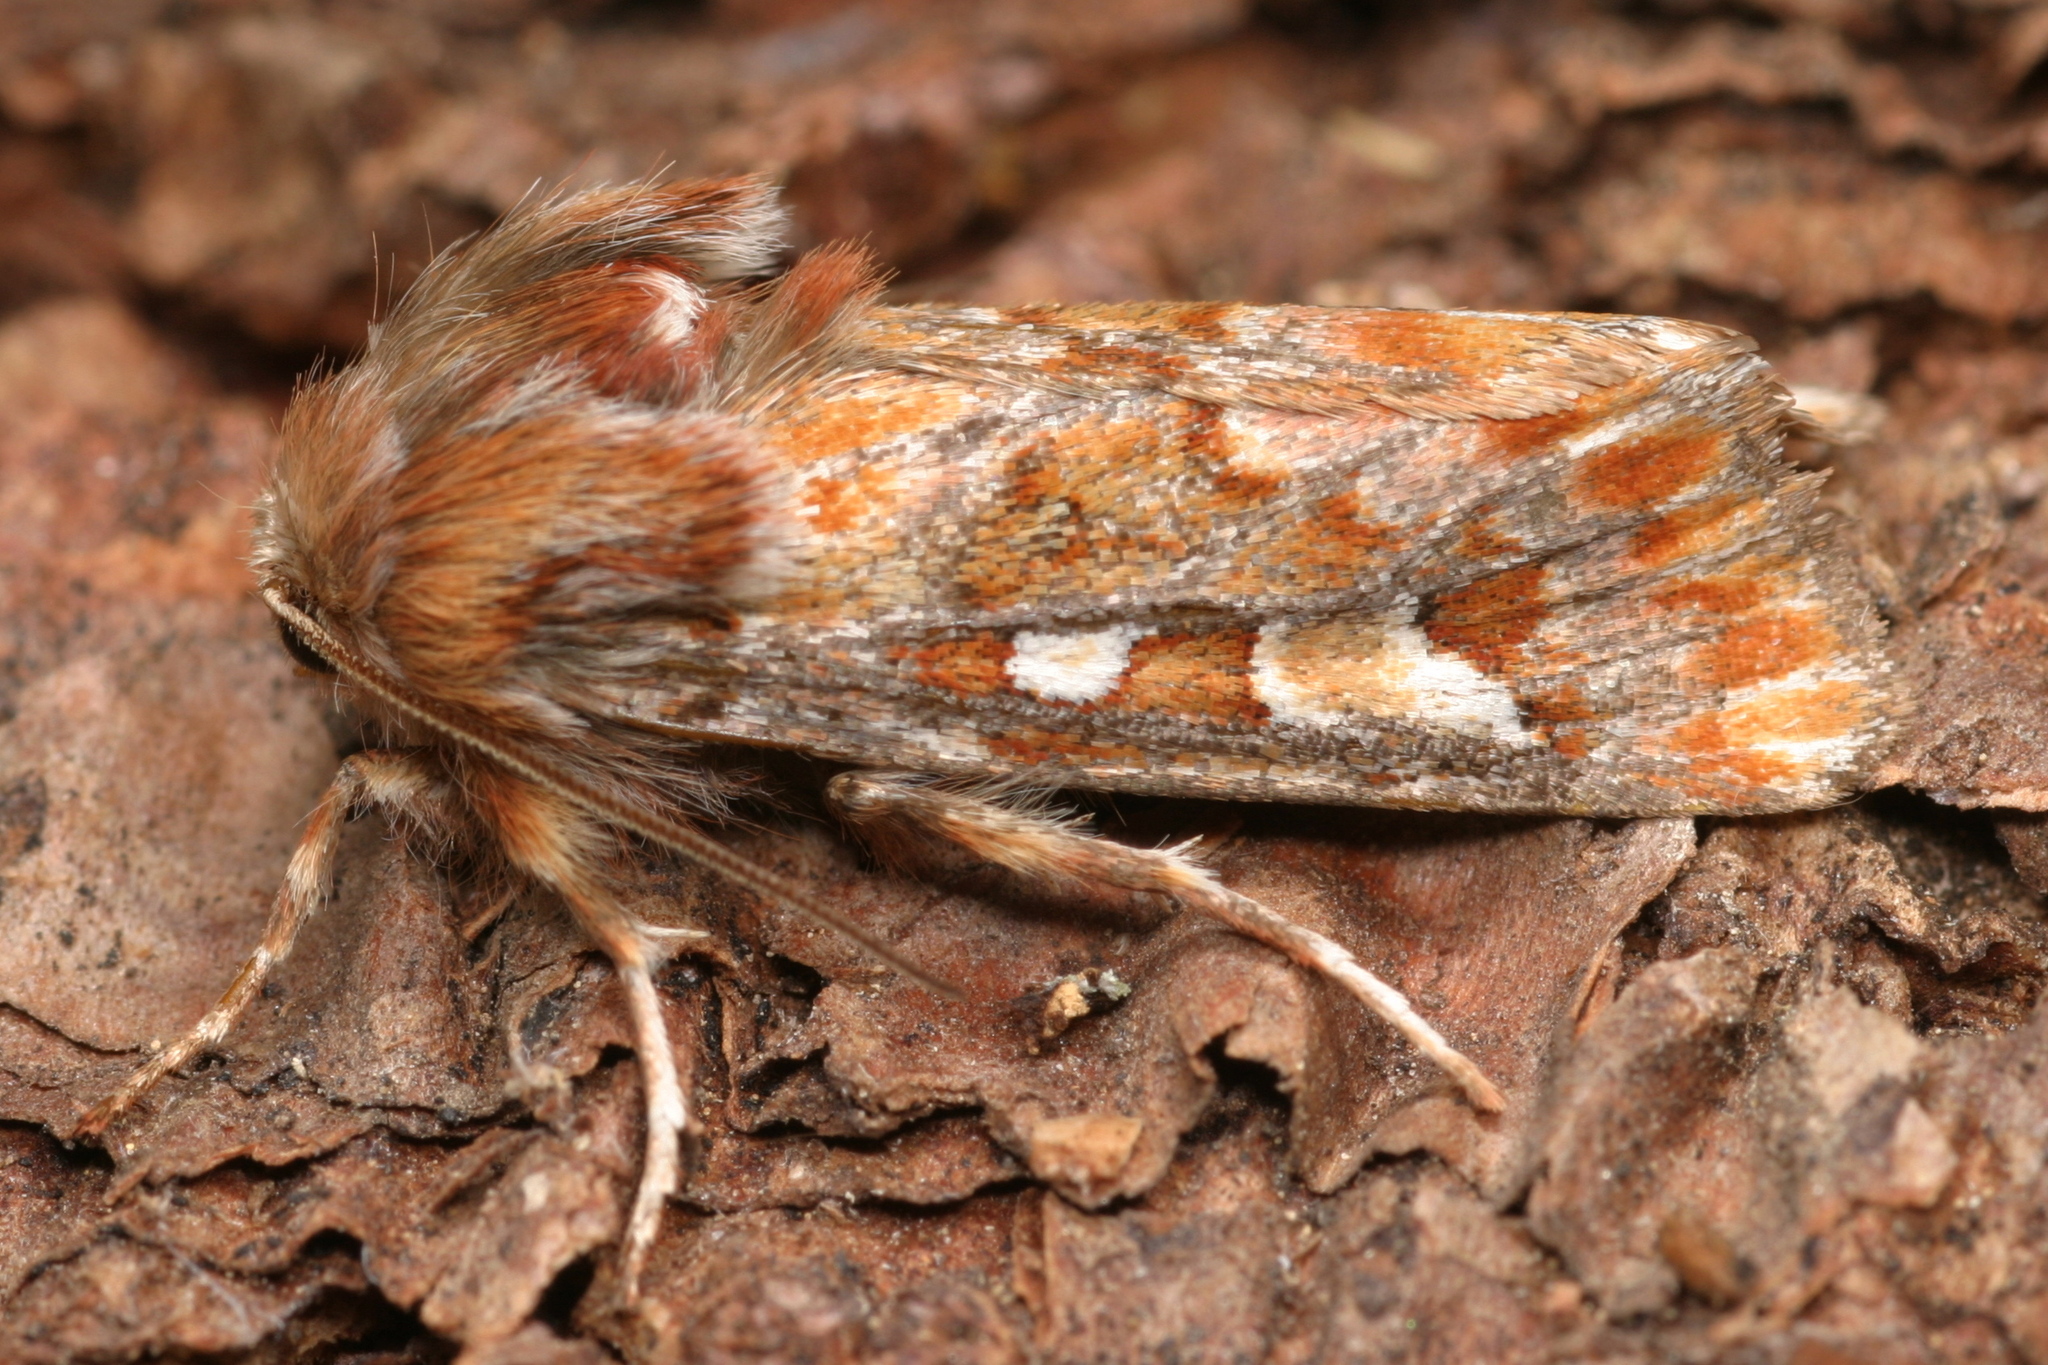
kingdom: Animalia
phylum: Arthropoda
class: Insecta
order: Lepidoptera
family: Noctuidae
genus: Panolis
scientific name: Panolis flammea
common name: Pine beauty
